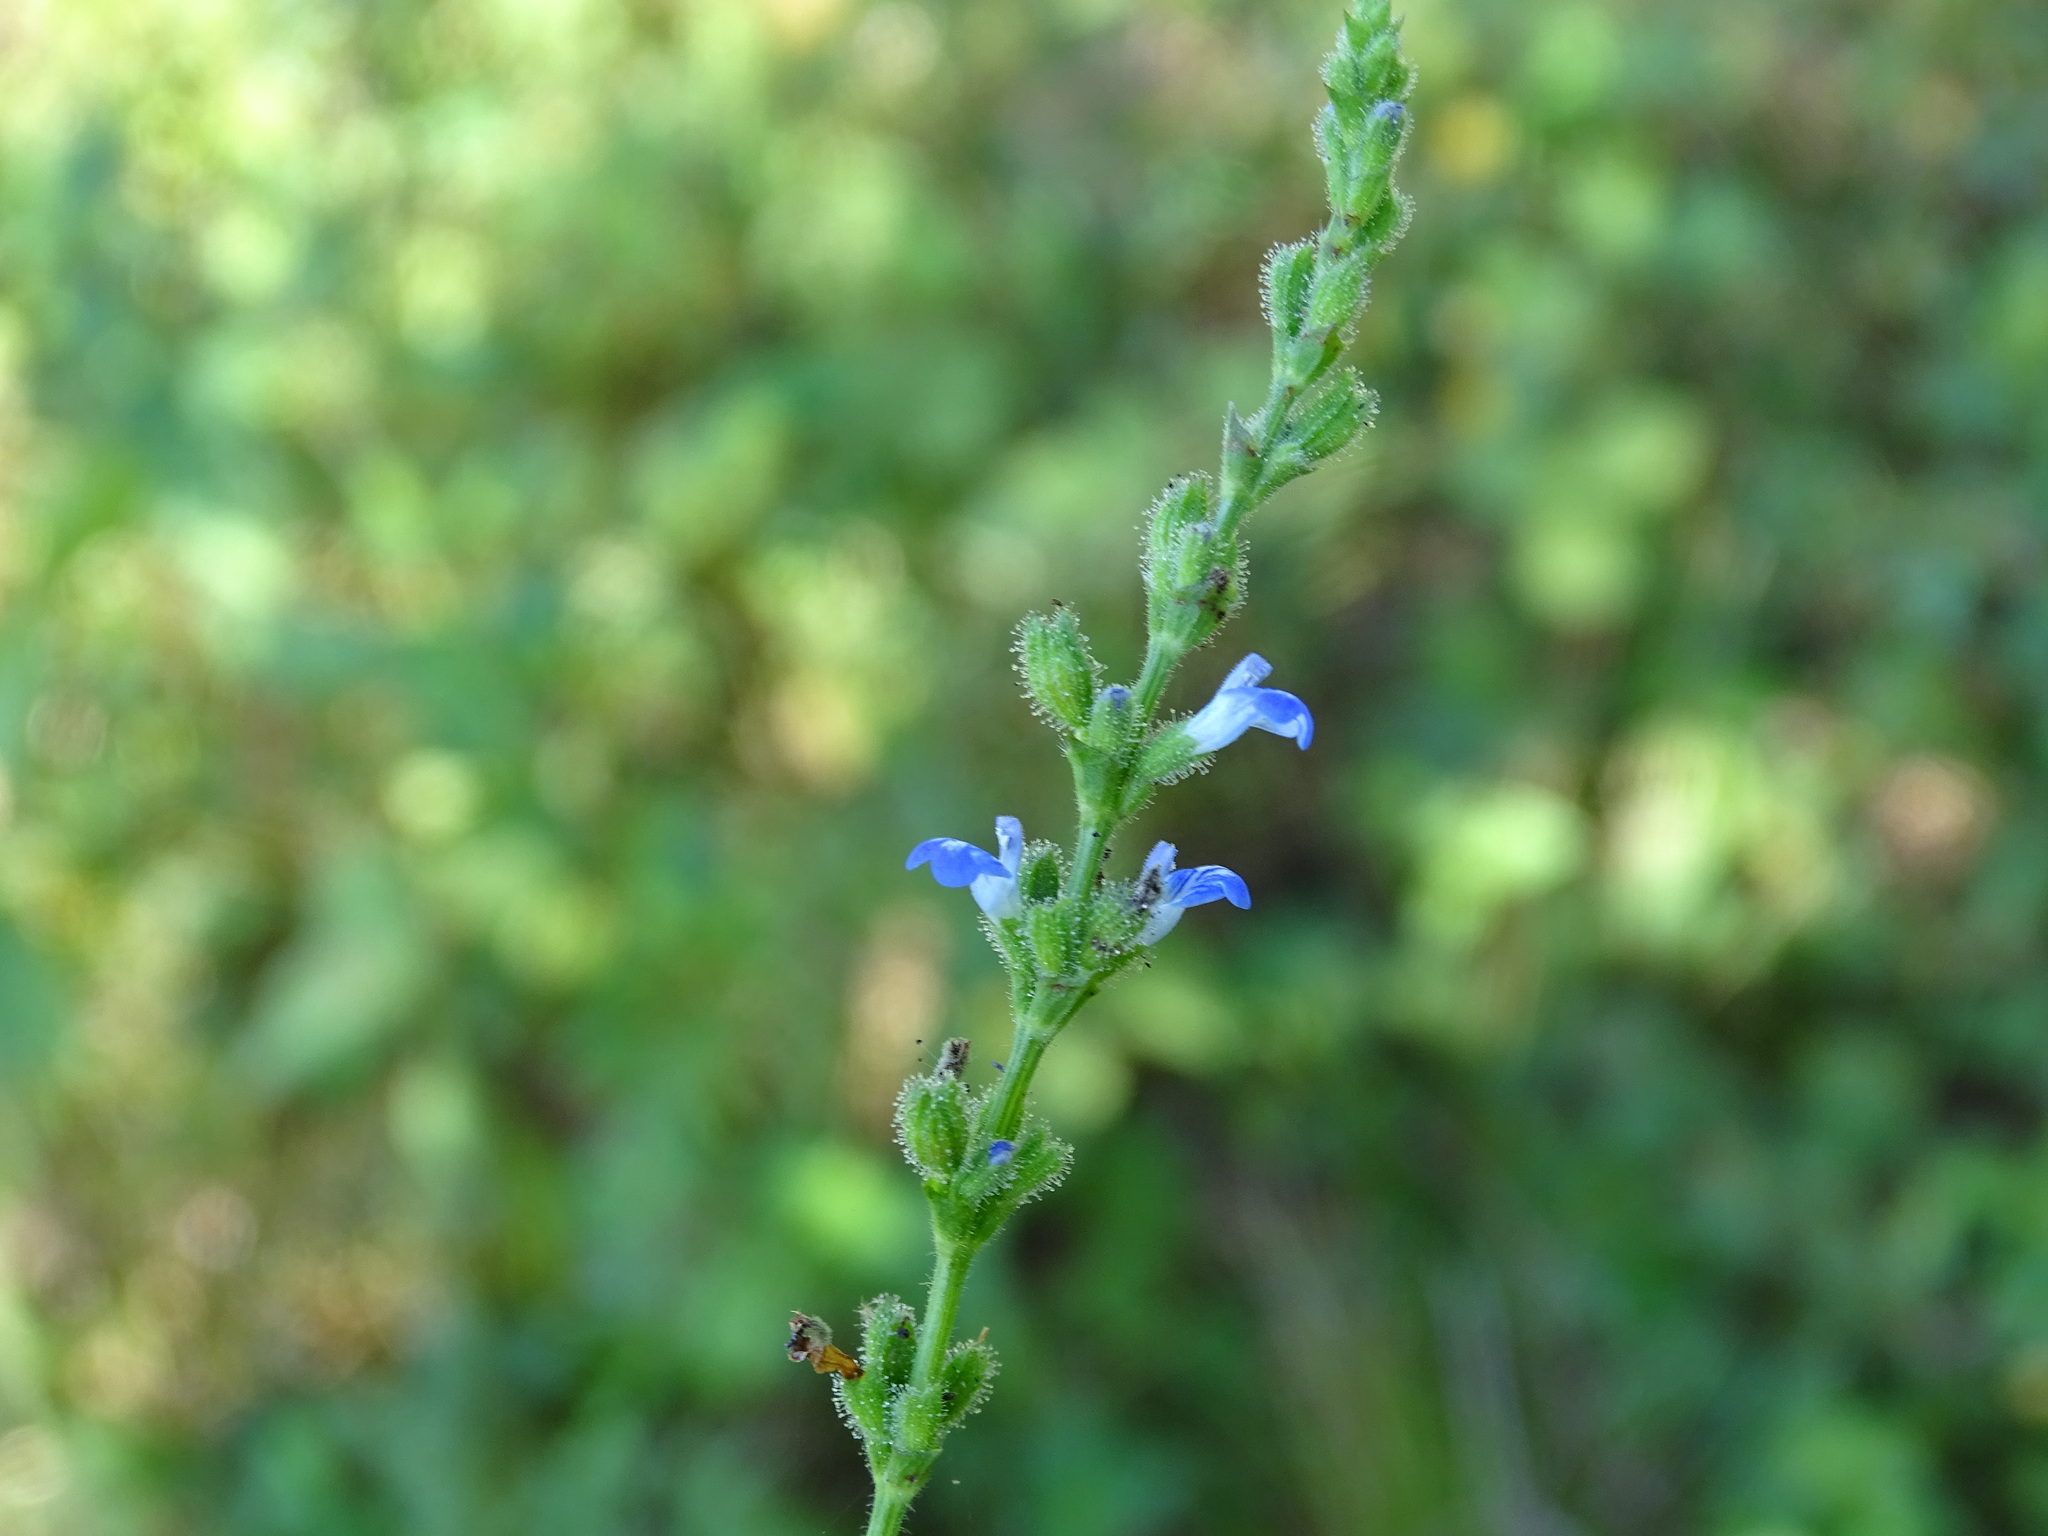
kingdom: Plantae
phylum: Tracheophyta
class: Magnoliopsida
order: Lamiales
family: Lamiaceae
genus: Salvia
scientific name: Salvia misella
